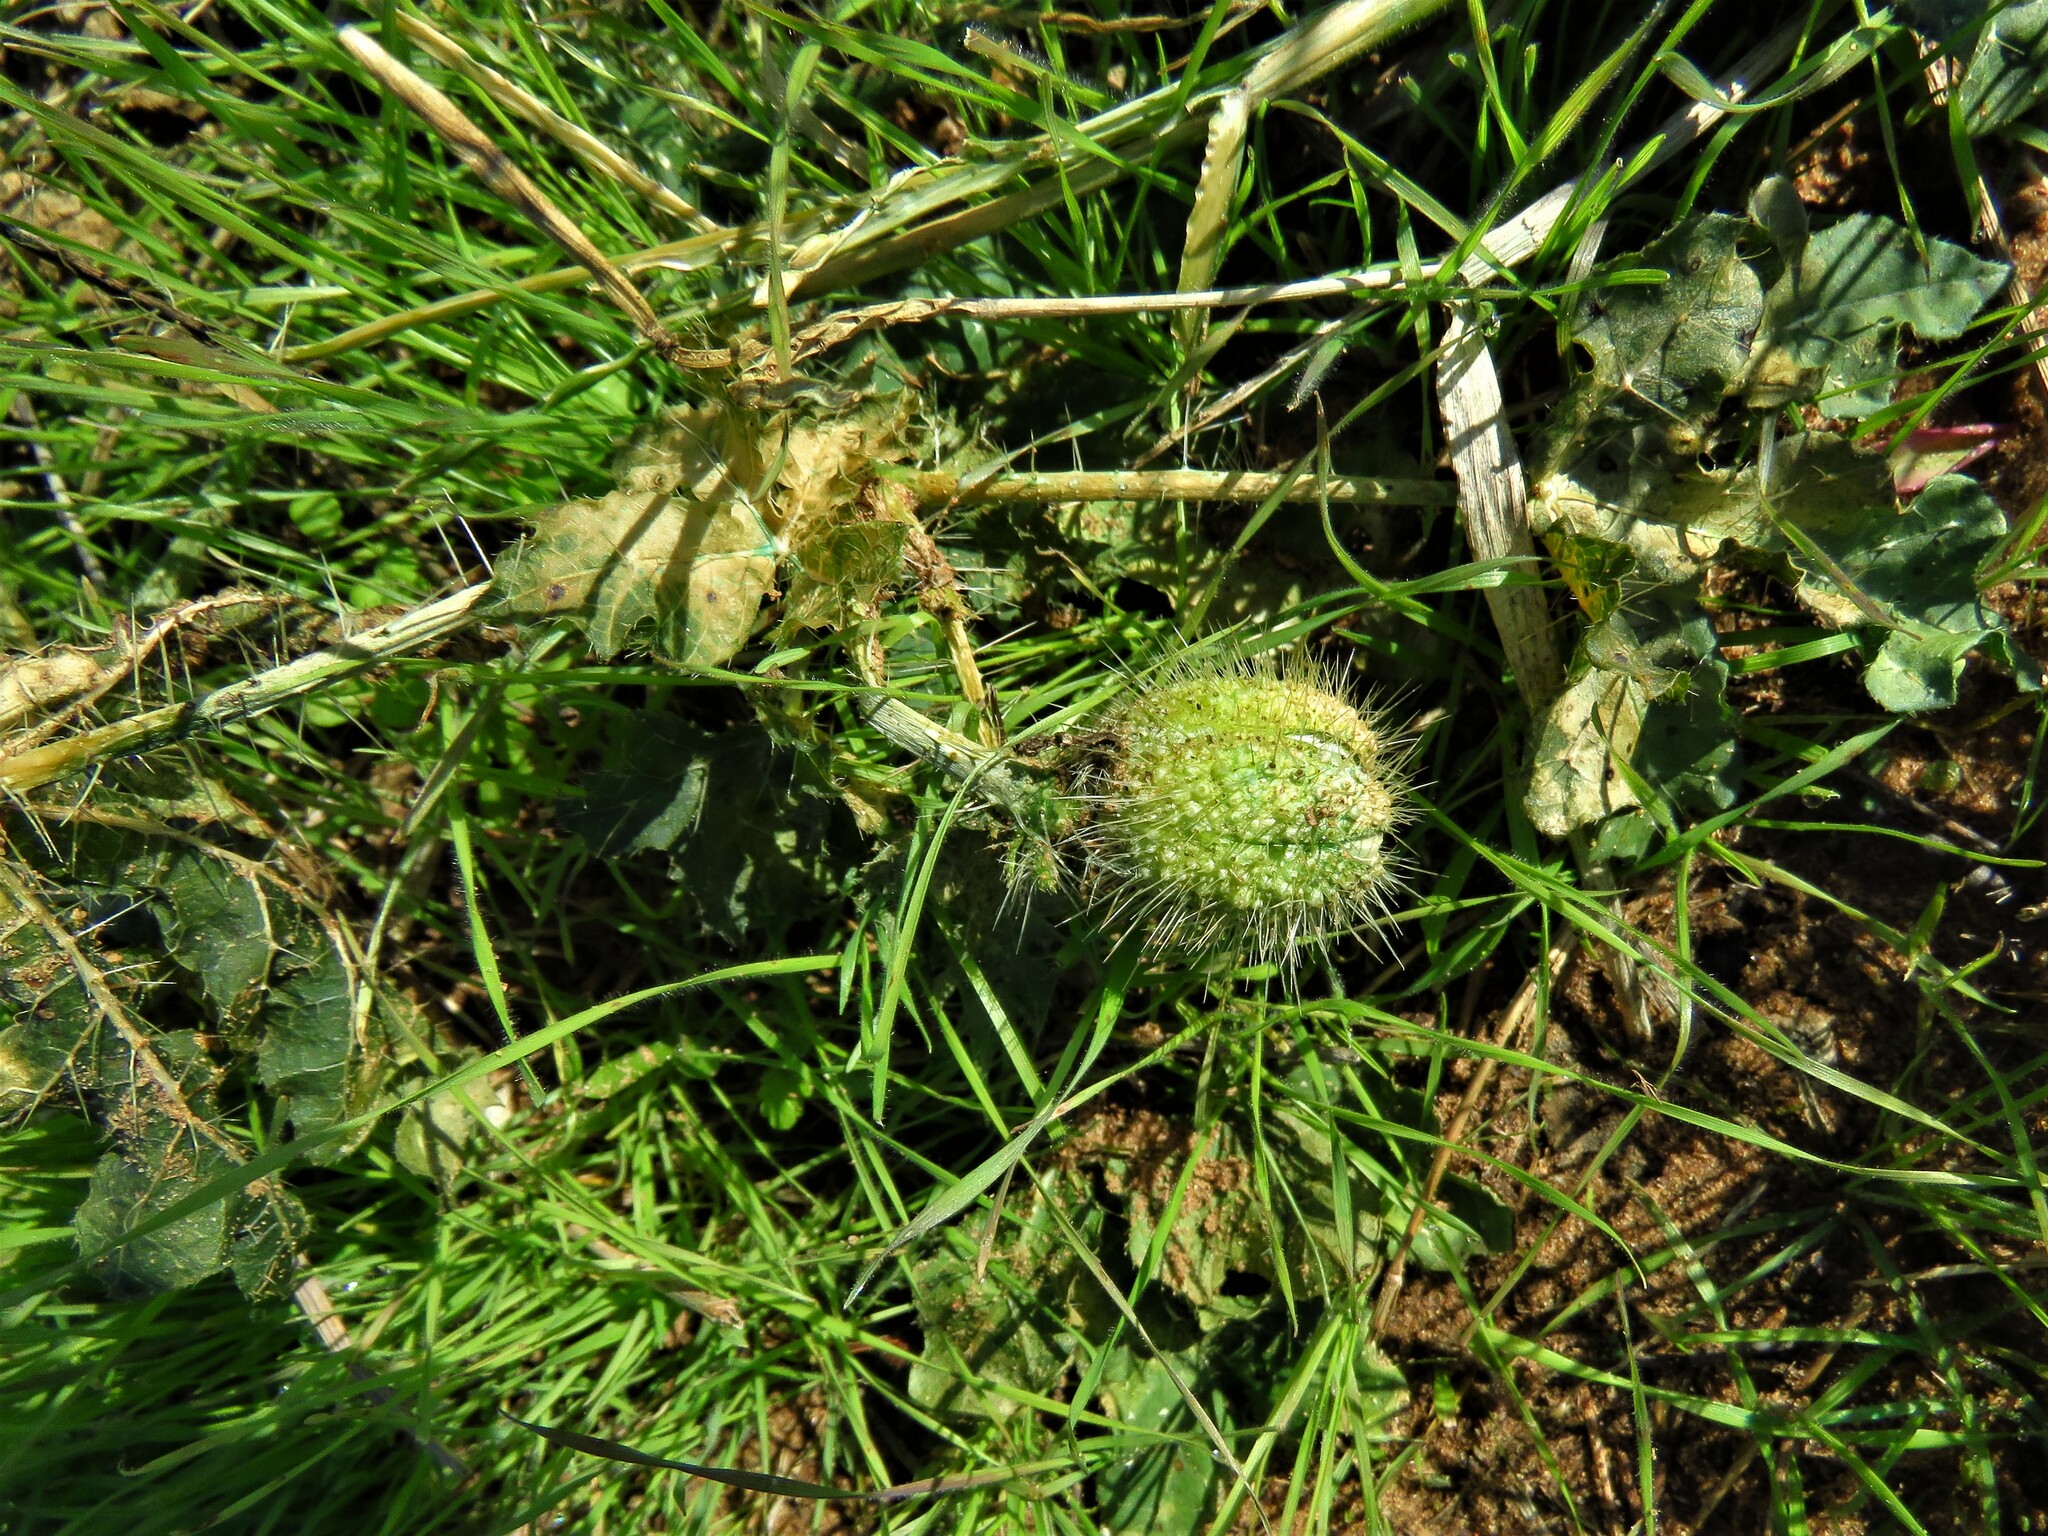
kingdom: Plantae
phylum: Tracheophyta
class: Magnoliopsida
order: Malpighiales
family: Euphorbiaceae
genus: Cnidoscolus
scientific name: Cnidoscolus texanus
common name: Texas bull-nettle
